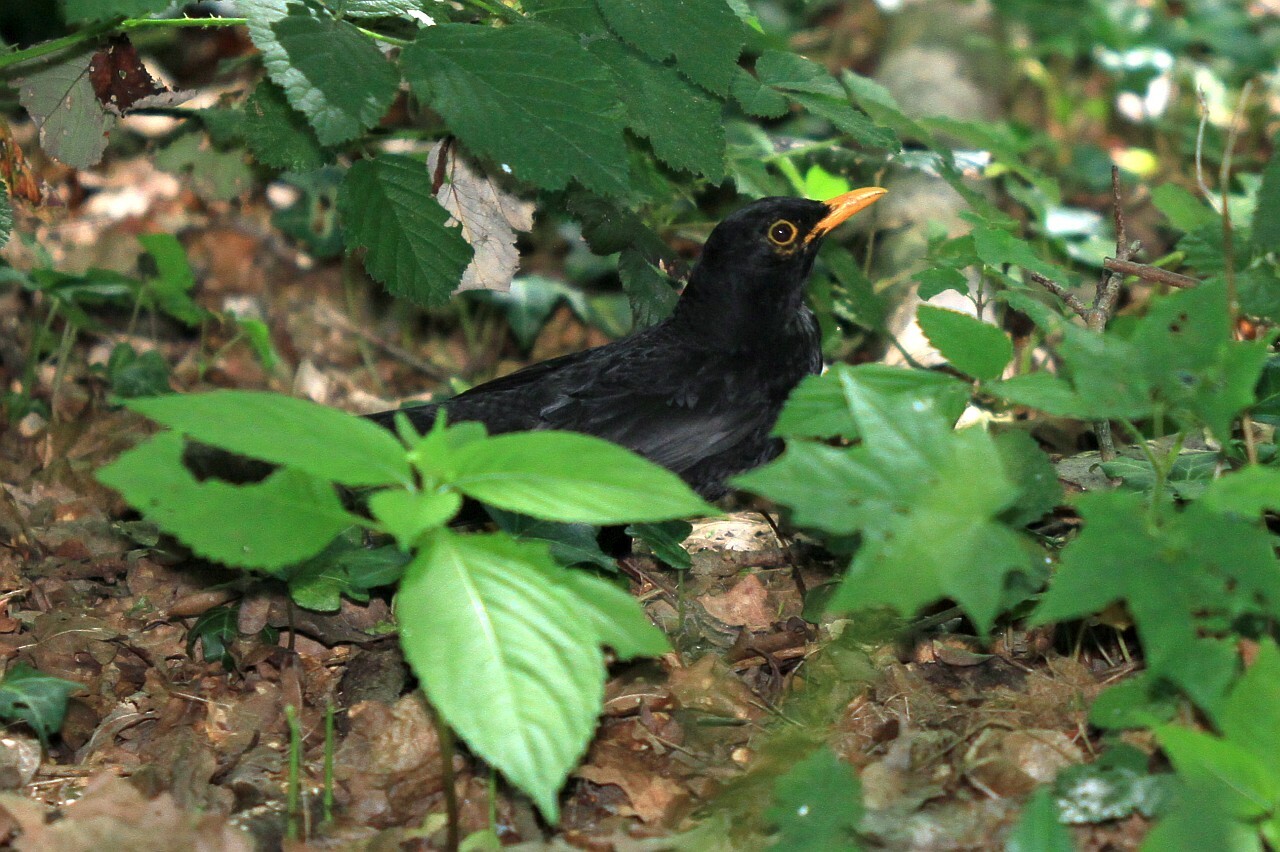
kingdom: Animalia
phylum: Chordata
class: Aves
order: Passeriformes
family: Turdidae
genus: Turdus
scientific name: Turdus merula
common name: Common blackbird
